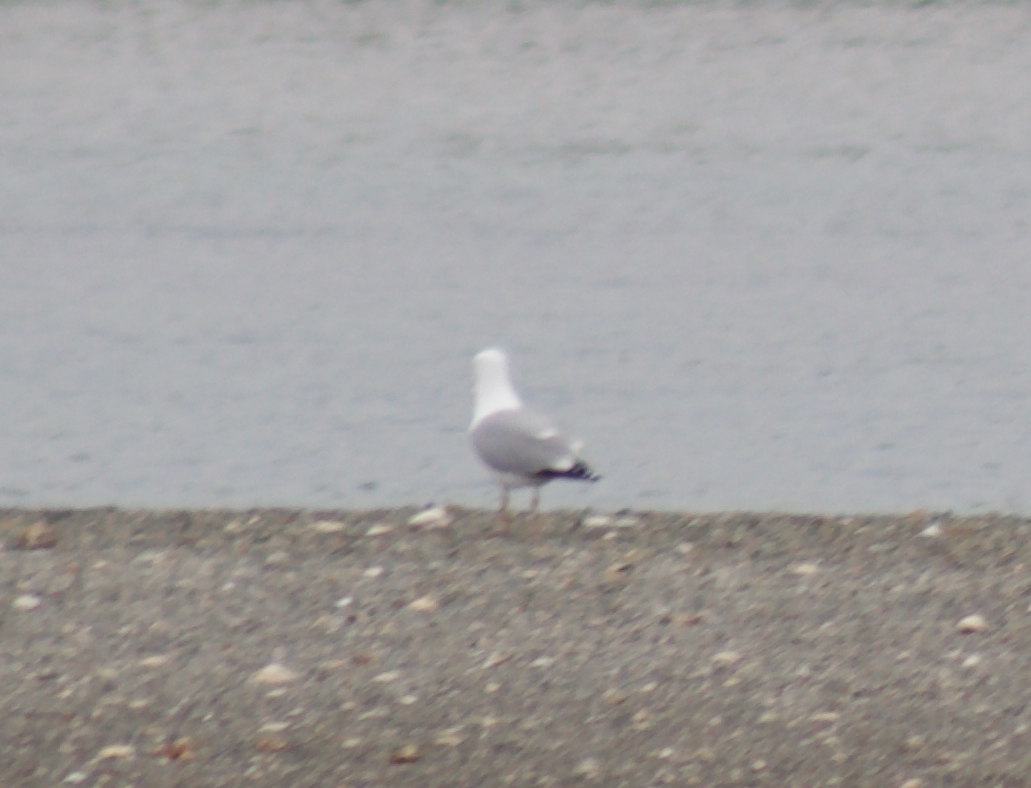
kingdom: Animalia
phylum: Chordata
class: Aves
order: Charadriiformes
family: Laridae
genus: Larus
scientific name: Larus argentatus
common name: Herring gull
